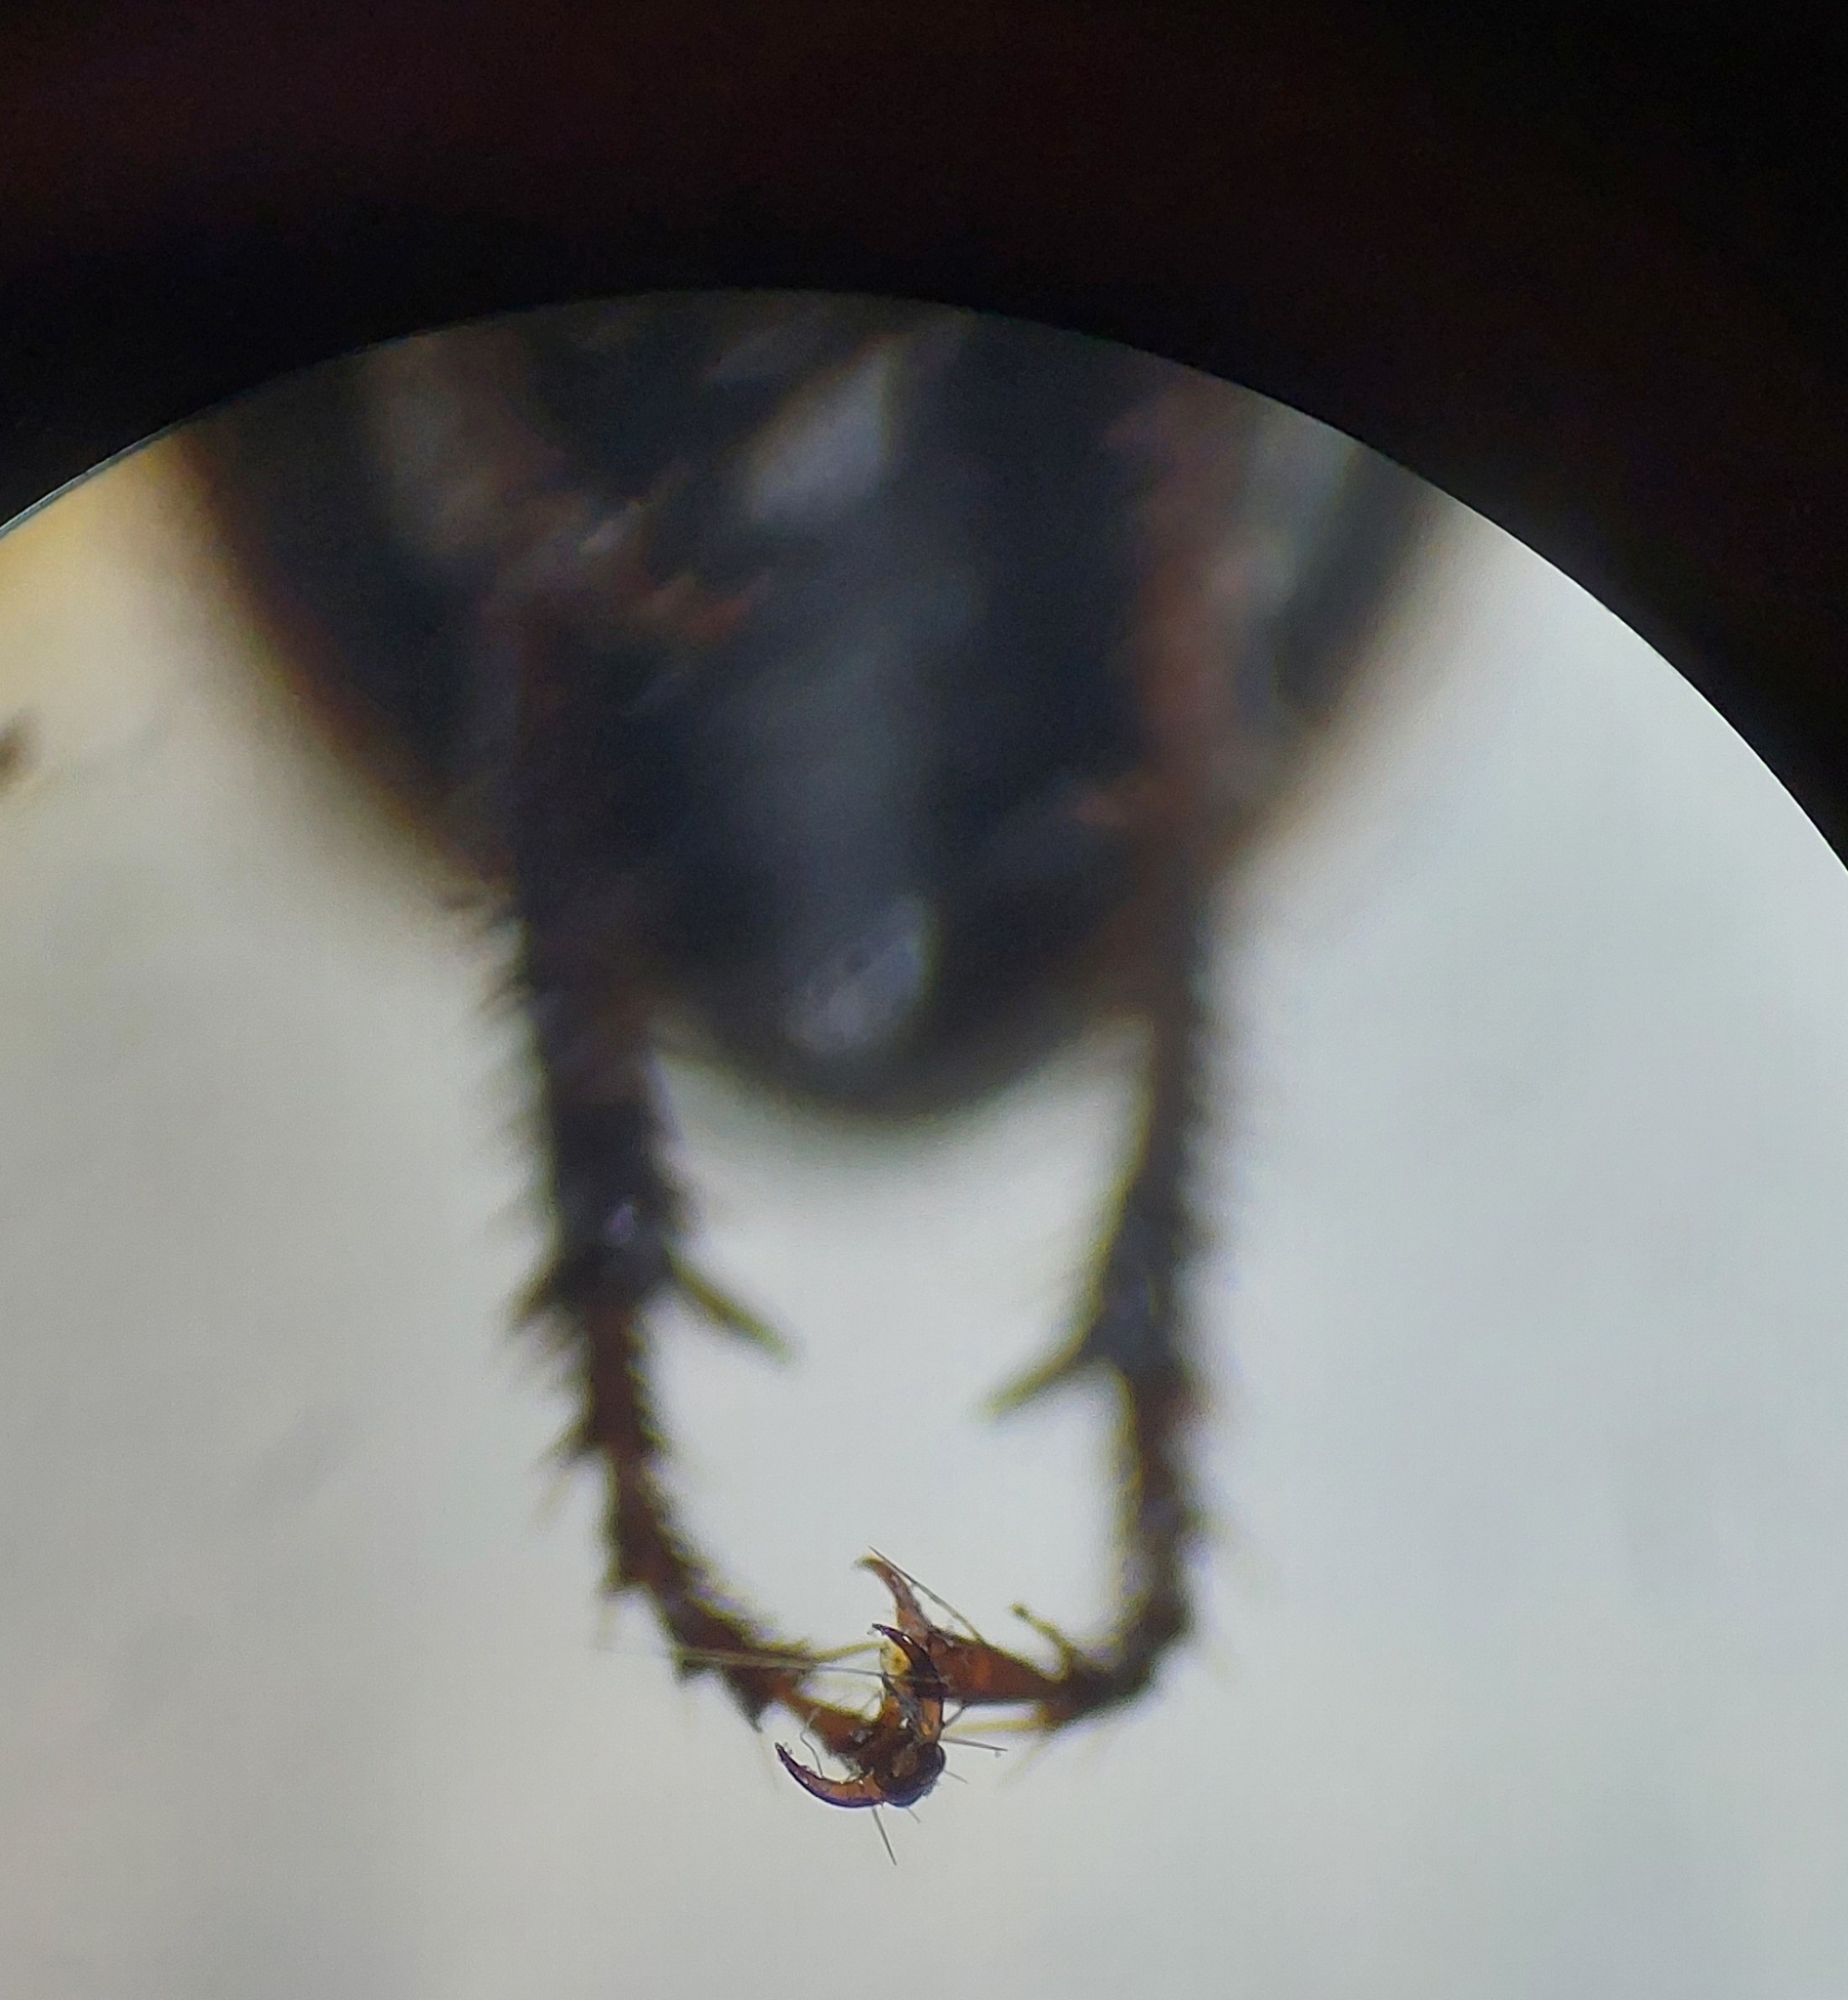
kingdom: Animalia
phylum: Arthropoda
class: Insecta
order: Coleoptera
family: Carabidae
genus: Harpalus
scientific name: Harpalus distinguendus
